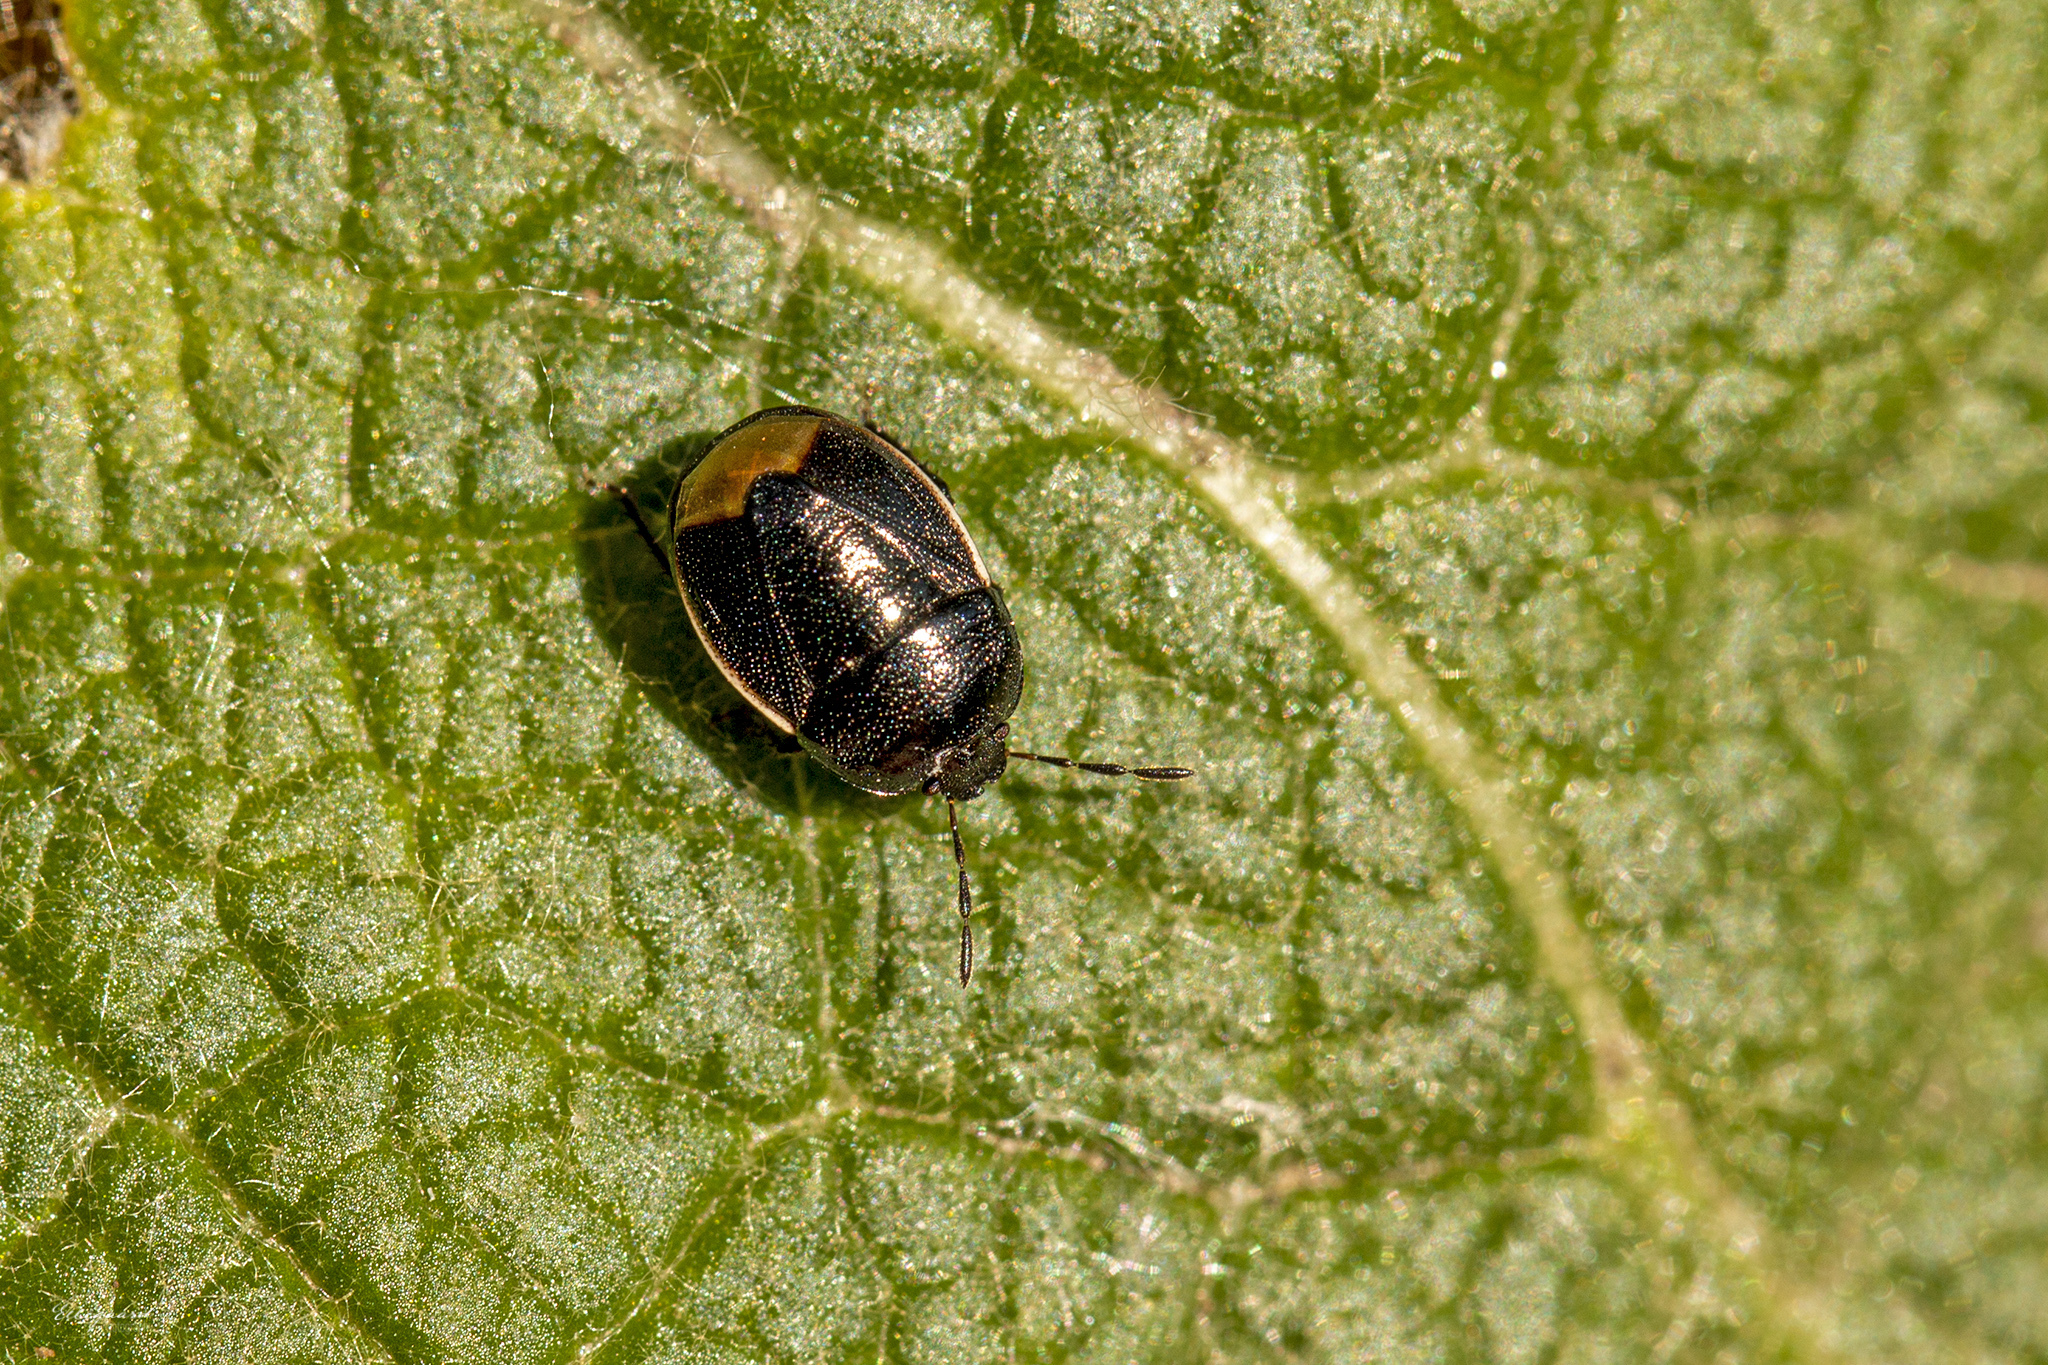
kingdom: Animalia
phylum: Arthropoda
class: Insecta
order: Hemiptera
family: Cydnidae
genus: Legnotus
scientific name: Legnotus limbosus
